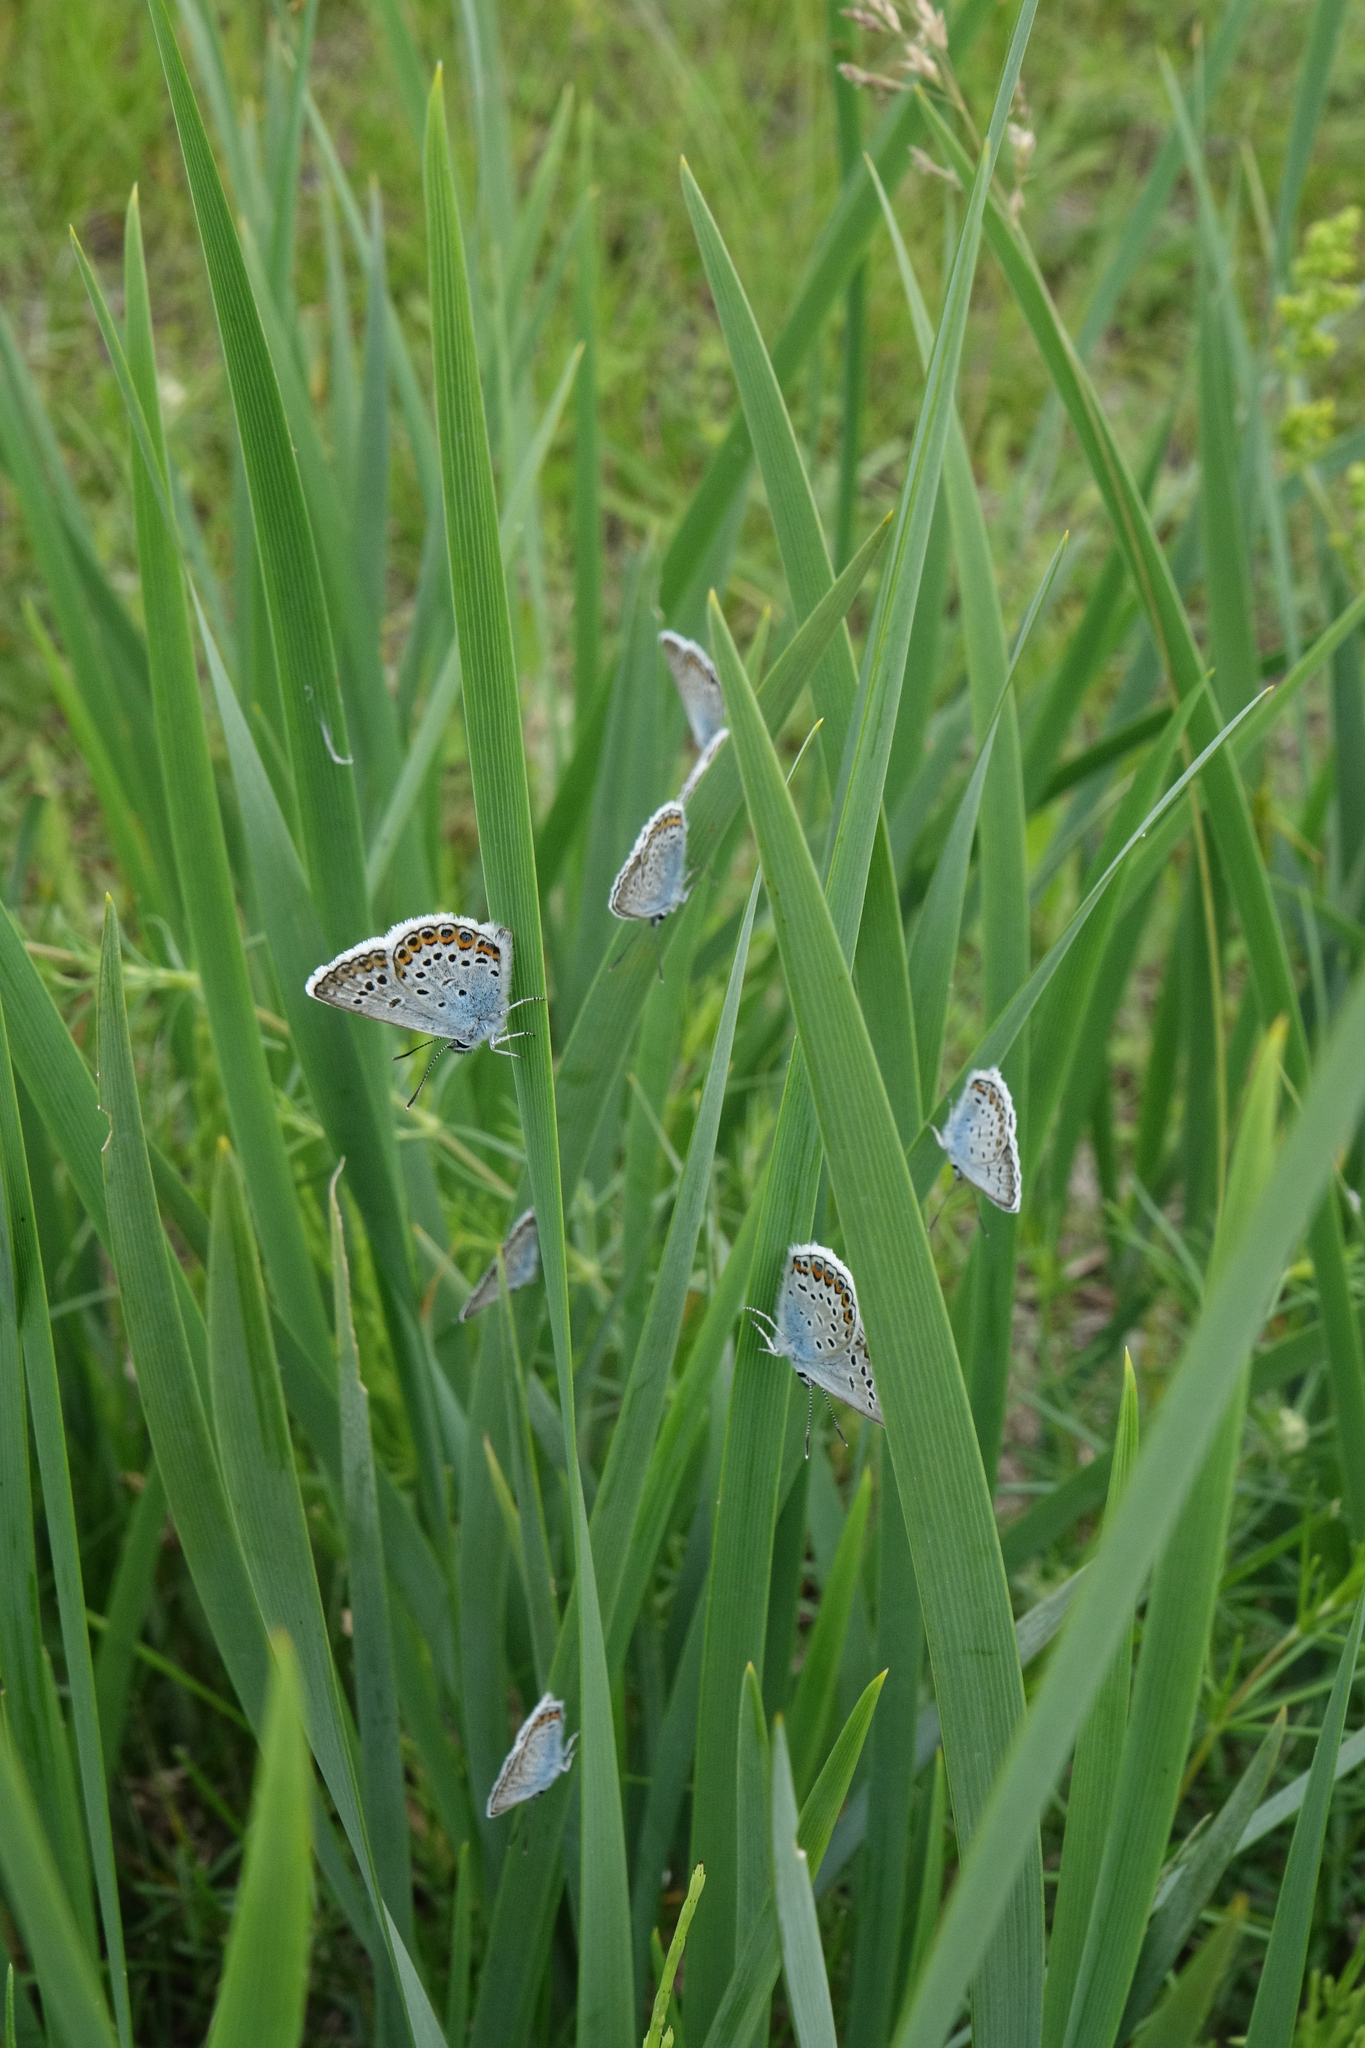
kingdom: Animalia
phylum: Arthropoda
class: Insecta
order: Lepidoptera
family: Lycaenidae
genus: Plebejus
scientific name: Plebejus argus
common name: Silver-studded blue
